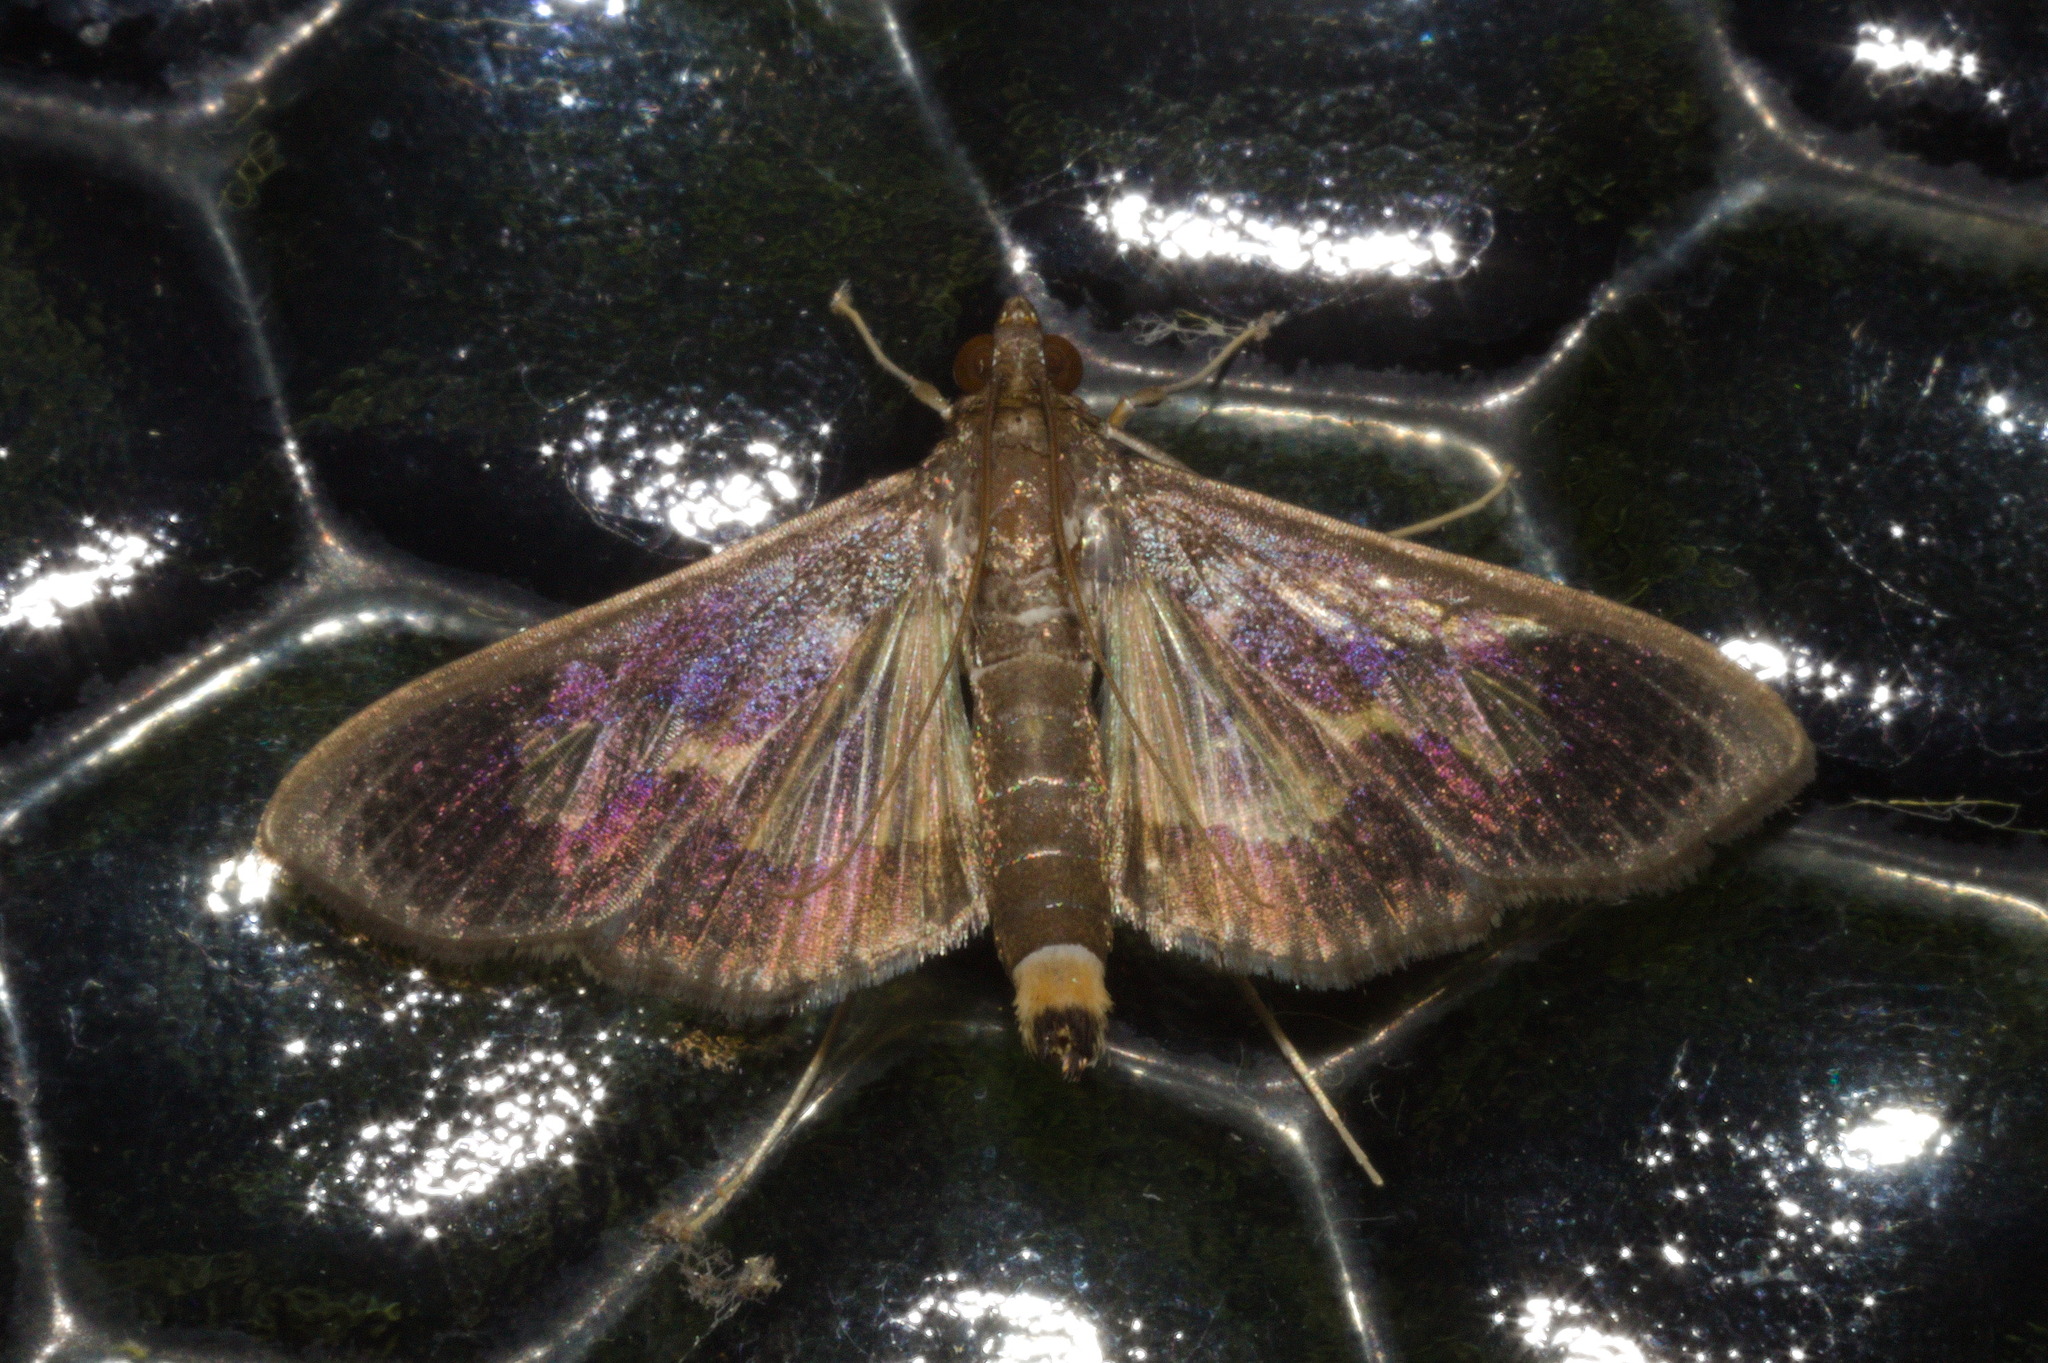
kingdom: Animalia
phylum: Arthropoda
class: Insecta
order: Lepidoptera
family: Crambidae
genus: Cryptographis
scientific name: Cryptographis nitidalis
